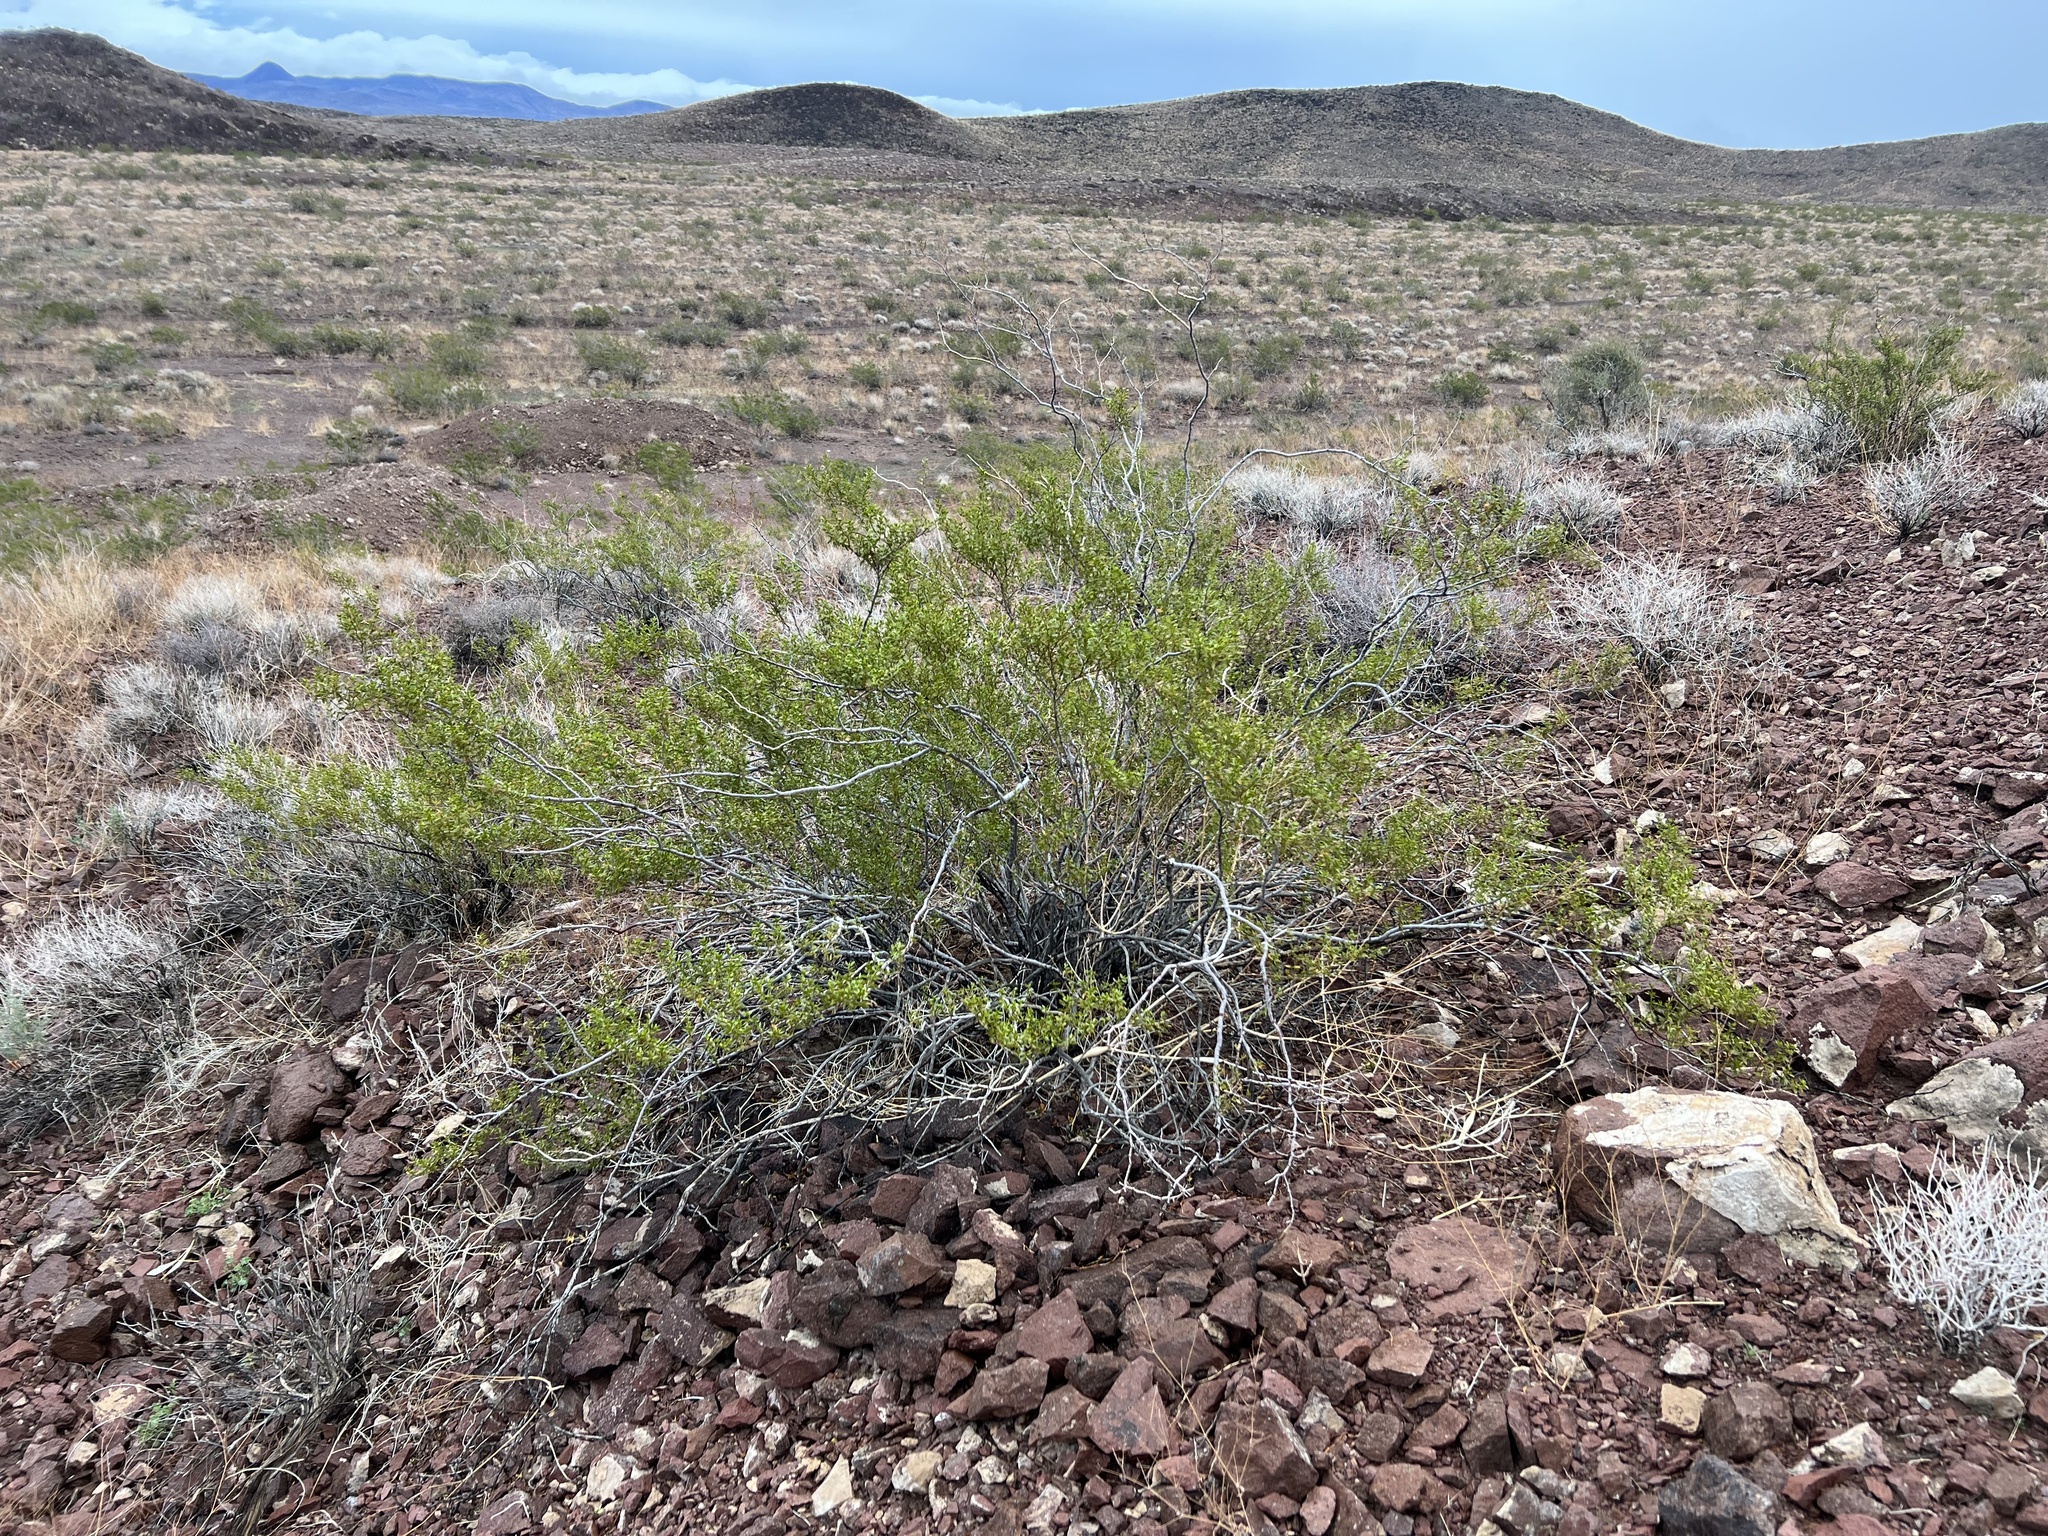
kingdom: Plantae
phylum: Tracheophyta
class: Magnoliopsida
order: Zygophyllales
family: Zygophyllaceae
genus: Larrea
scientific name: Larrea tridentata
